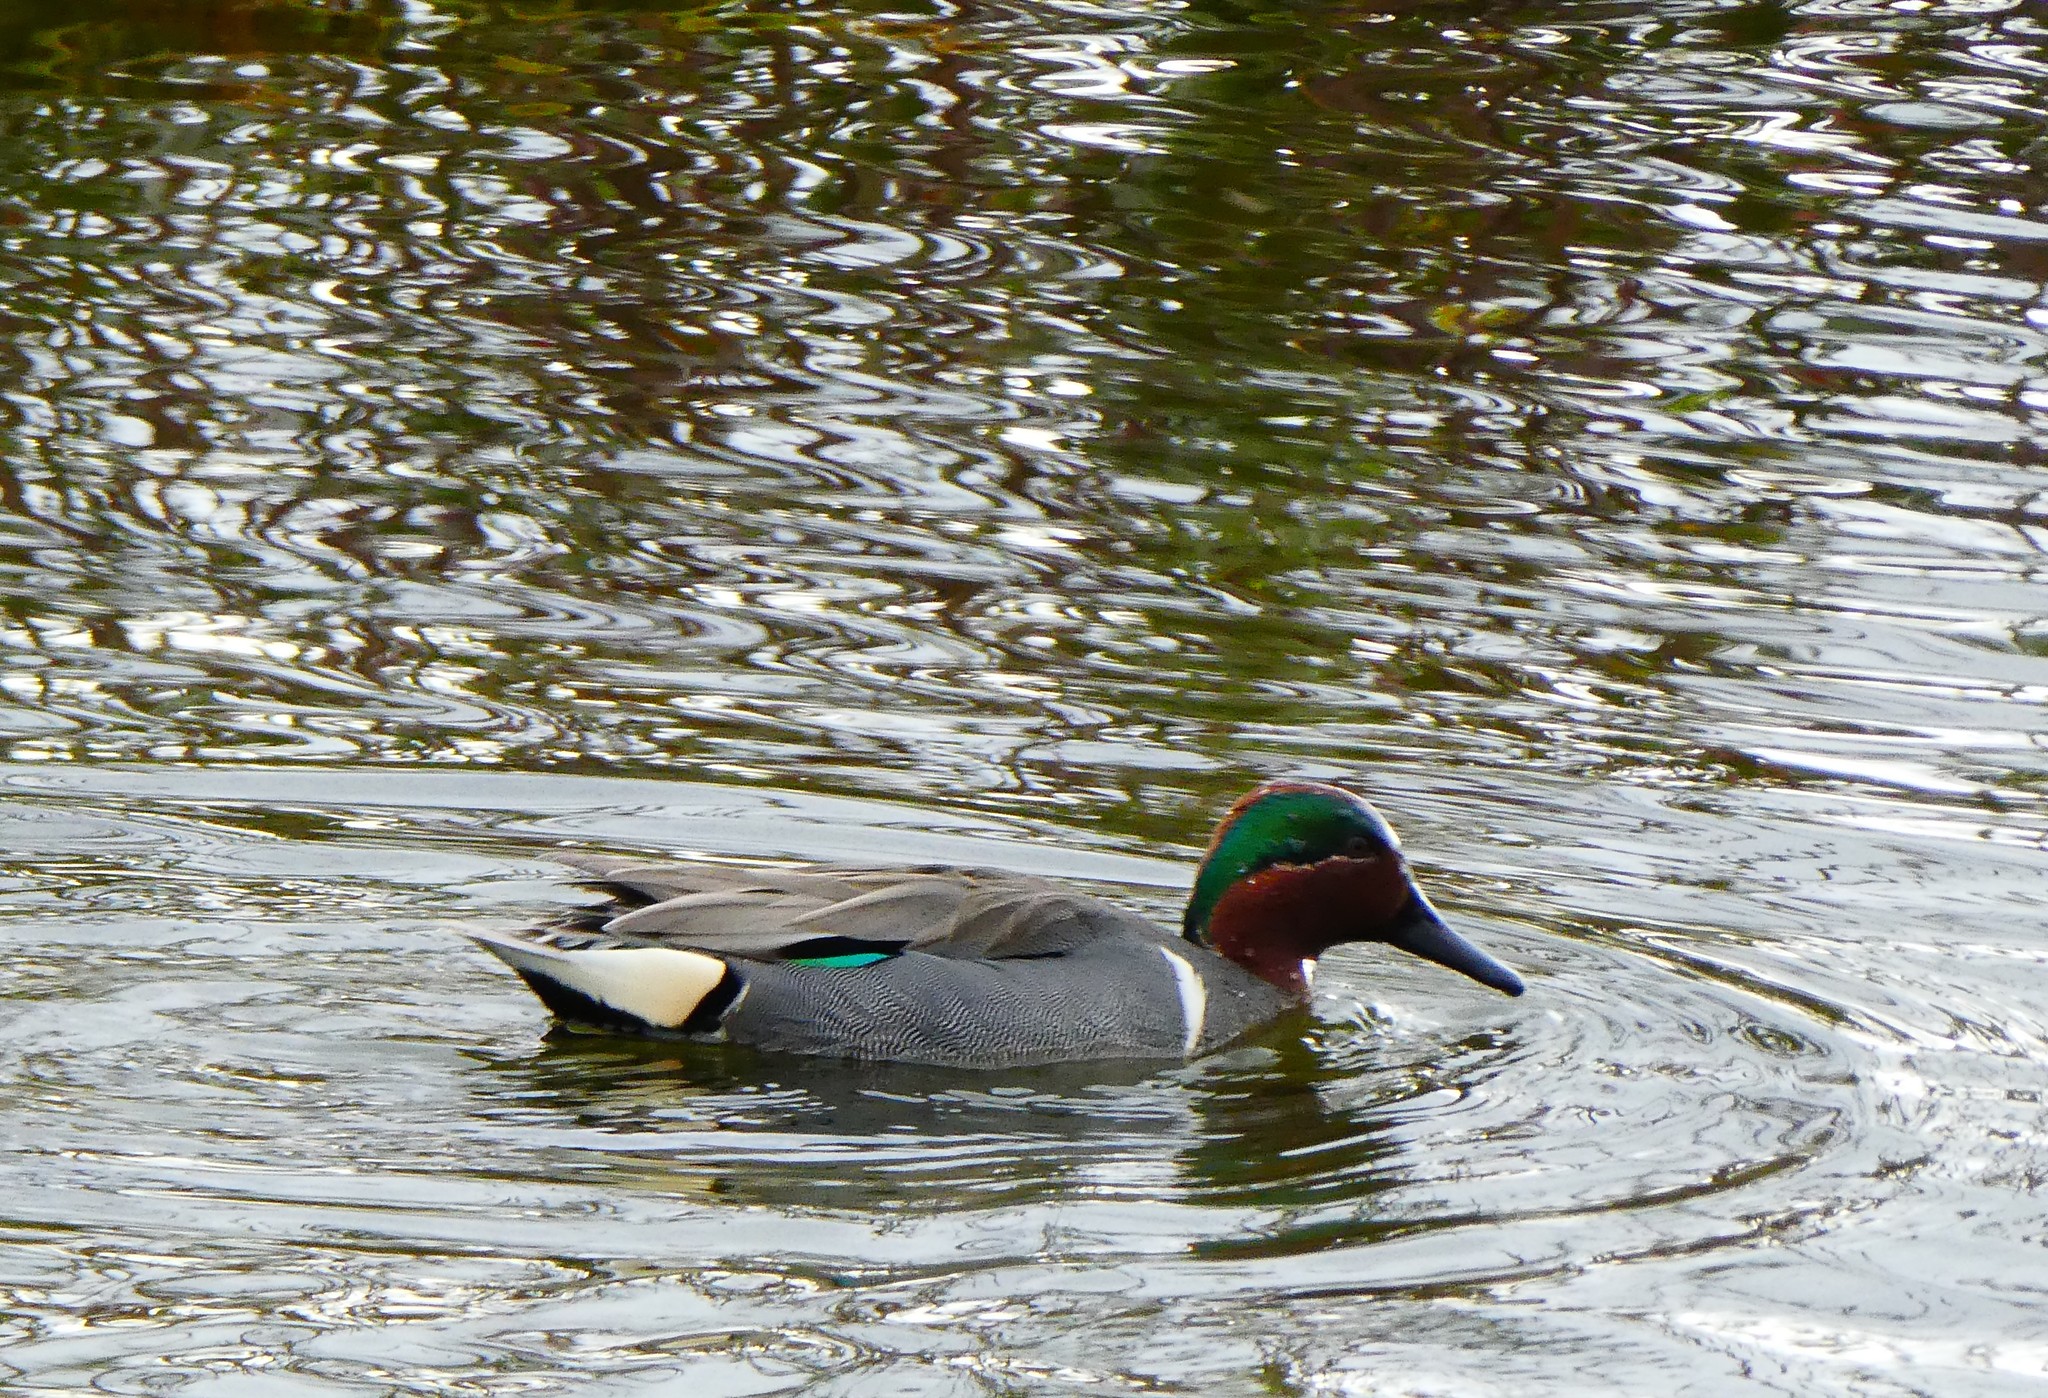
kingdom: Animalia
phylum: Chordata
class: Aves
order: Anseriformes
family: Anatidae
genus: Anas
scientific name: Anas crecca
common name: Eurasian teal
